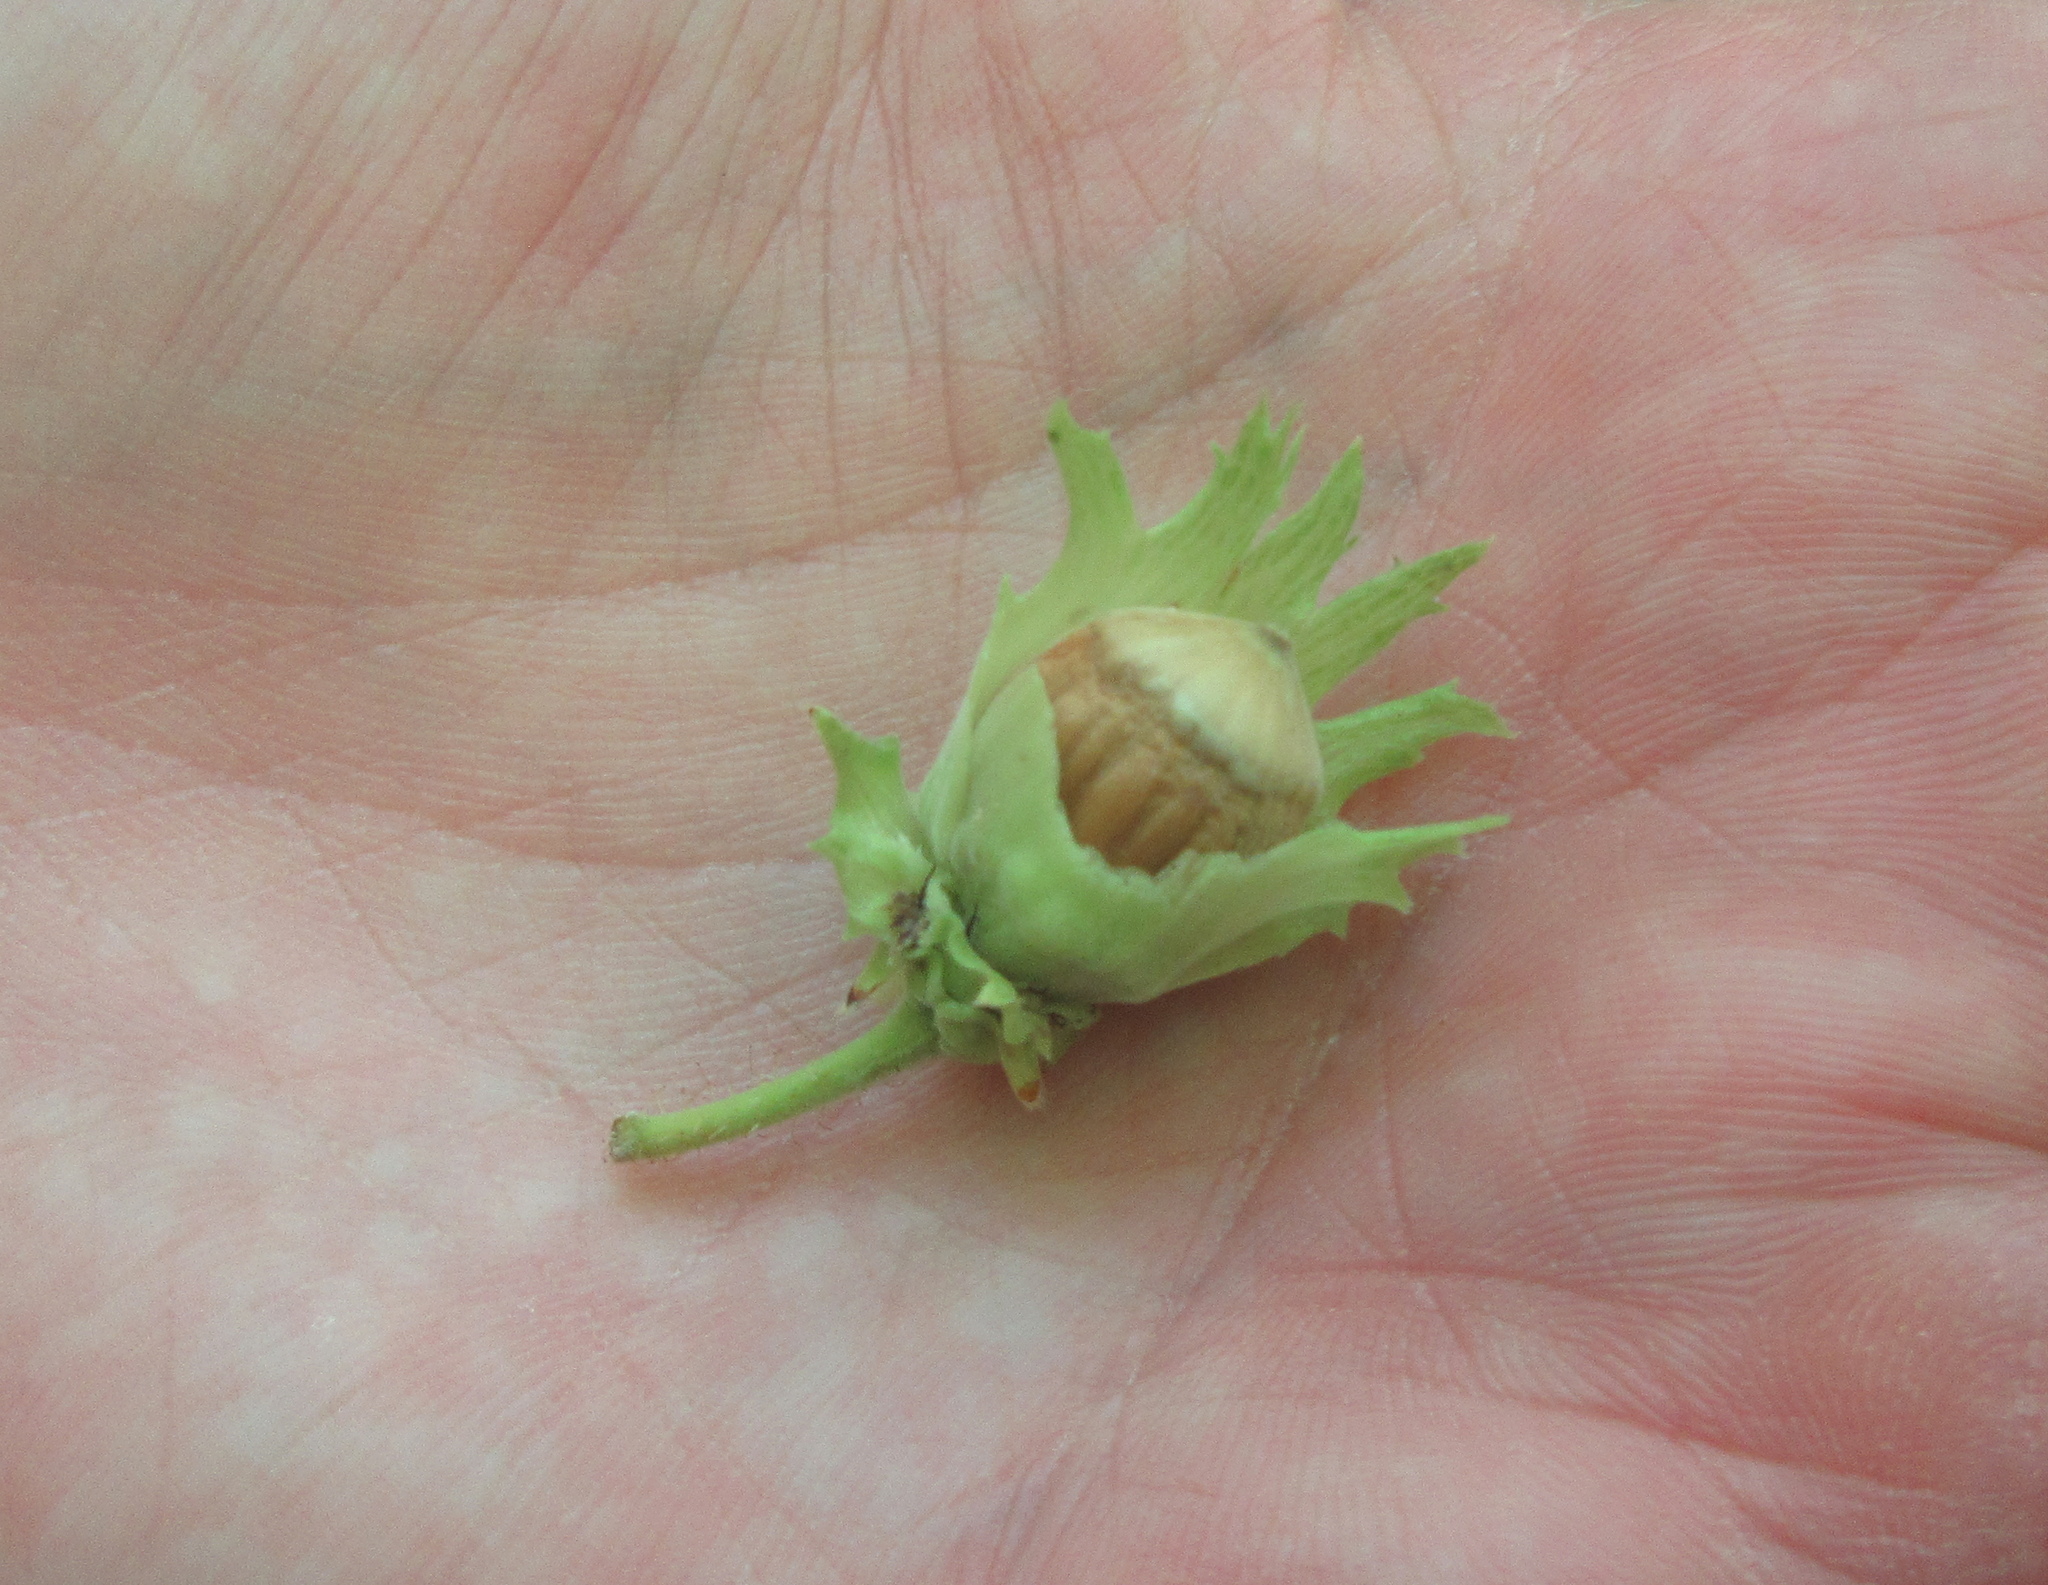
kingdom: Plantae
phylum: Tracheophyta
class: Magnoliopsida
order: Fagales
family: Betulaceae
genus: Corylus
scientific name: Corylus avellana
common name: European hazel
